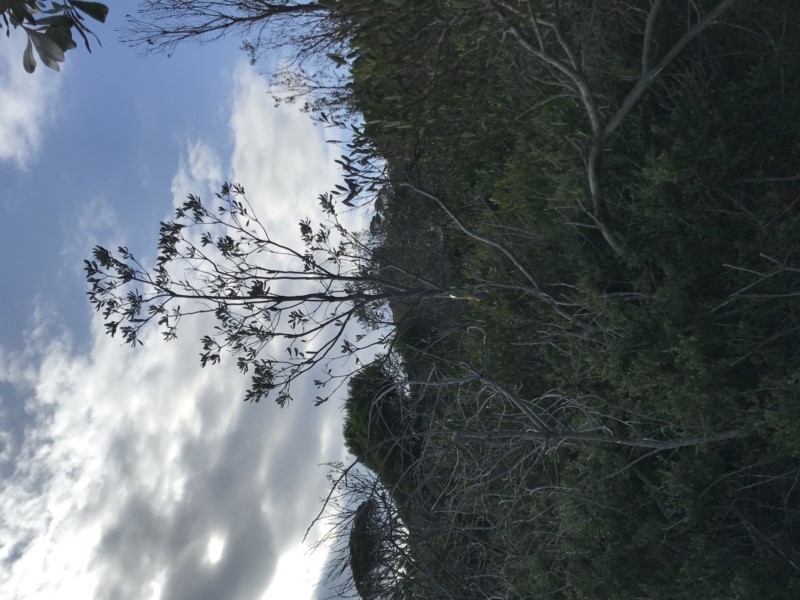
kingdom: Plantae
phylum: Tracheophyta
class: Magnoliopsida
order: Proteales
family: Proteaceae
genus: Banksia
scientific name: Banksia integrifolia
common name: White-honeysuckle
